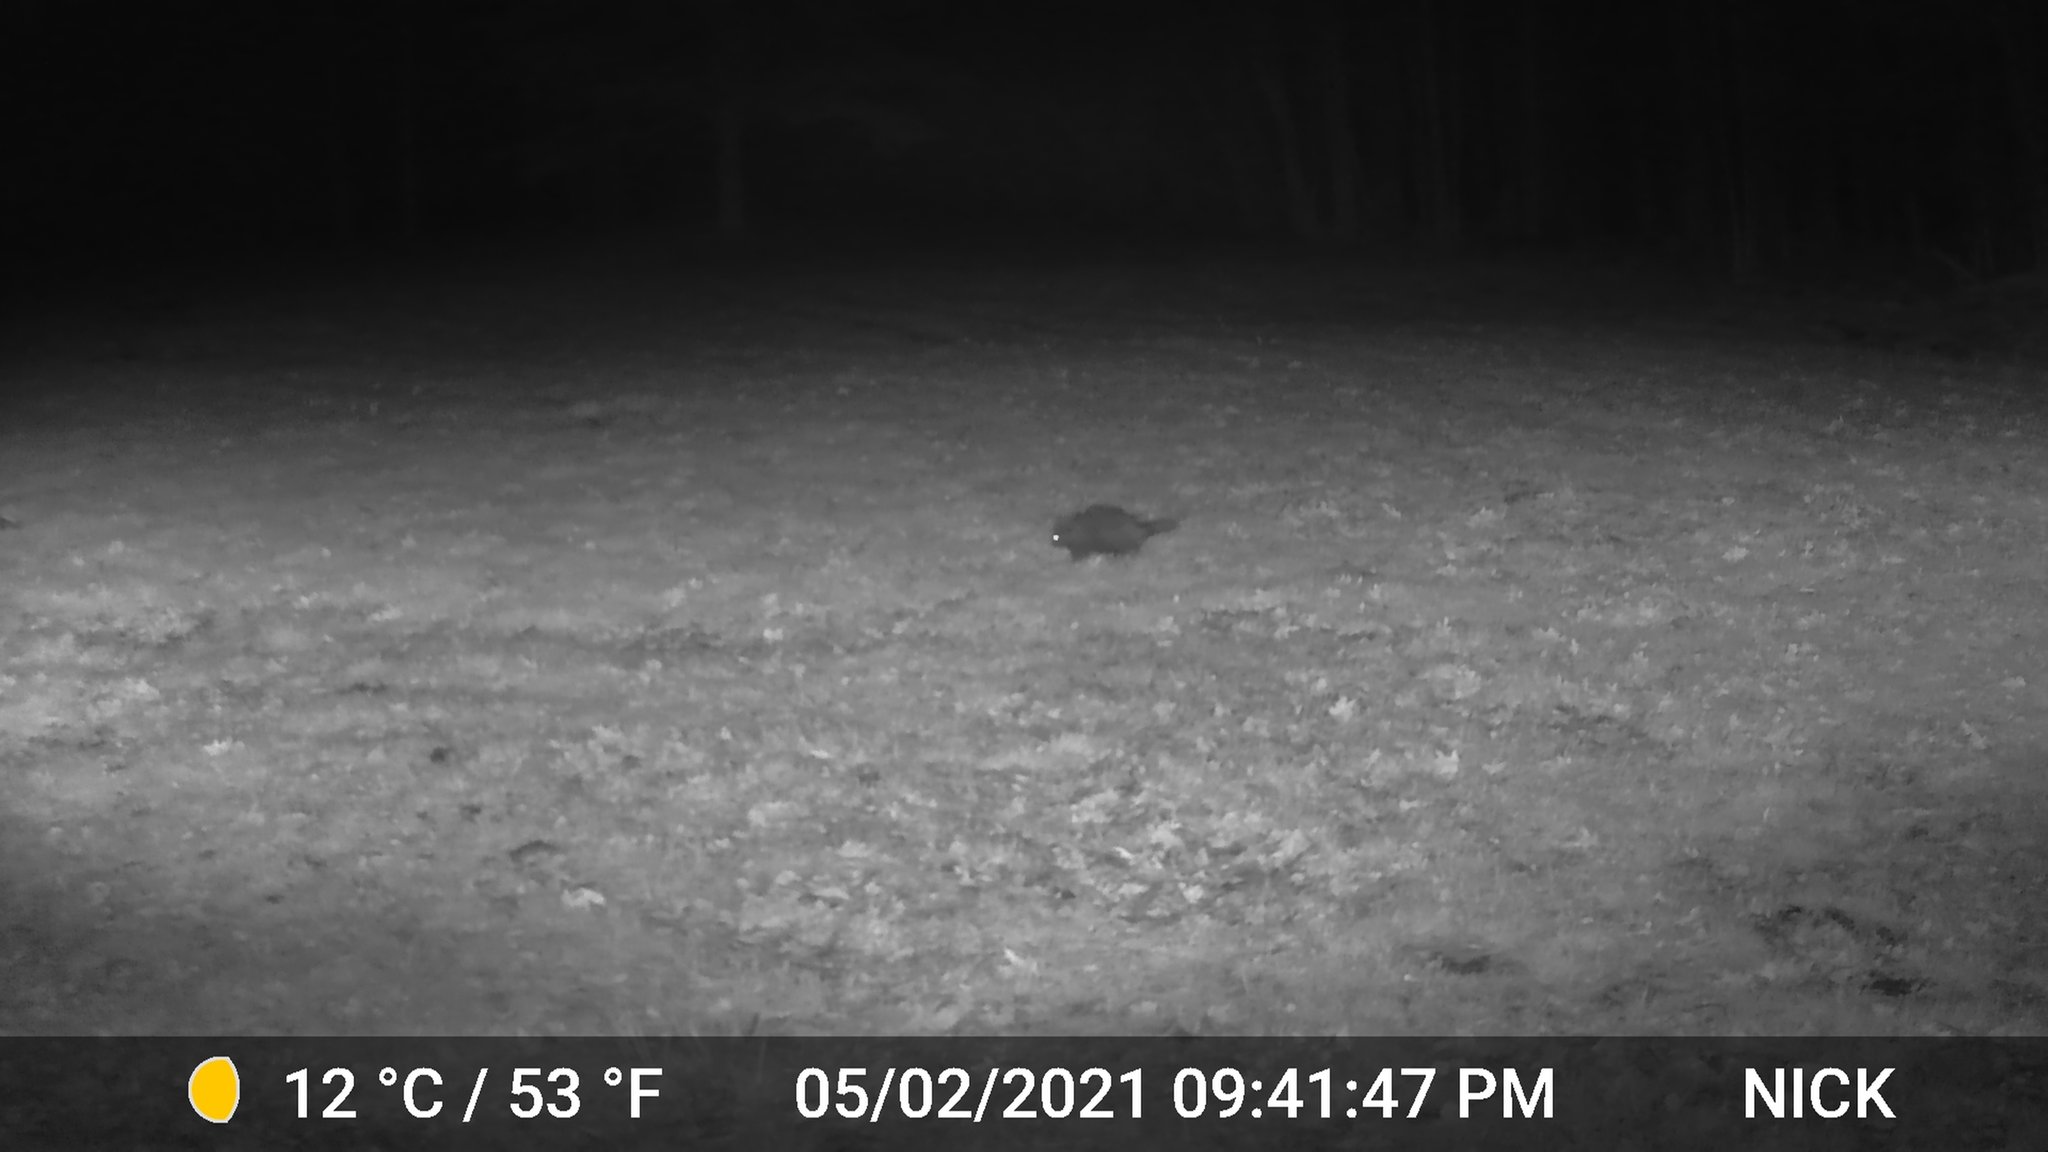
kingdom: Animalia
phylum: Chordata
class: Mammalia
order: Rodentia
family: Erethizontidae
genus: Erethizon
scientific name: Erethizon dorsatus
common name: North american porcupine
